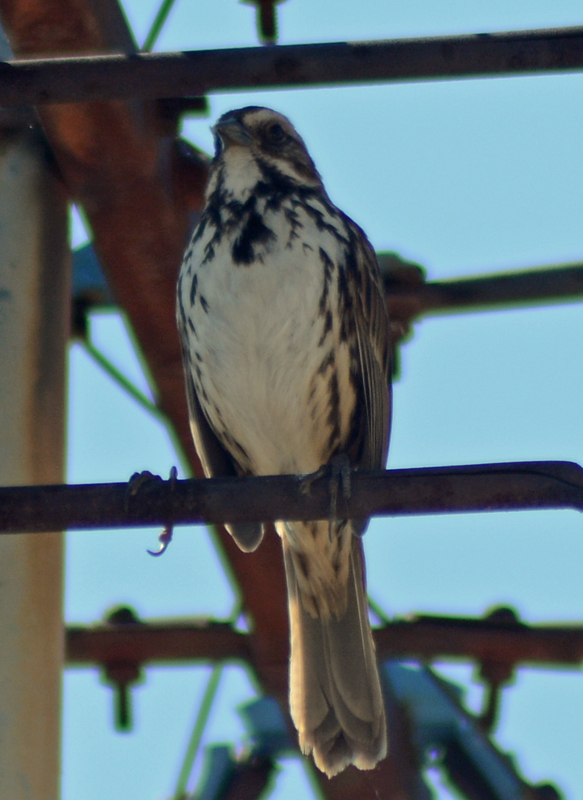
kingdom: Animalia
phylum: Chordata
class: Aves
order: Passeriformes
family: Passerellidae
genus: Melospiza
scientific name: Melospiza melodia
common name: Song sparrow
